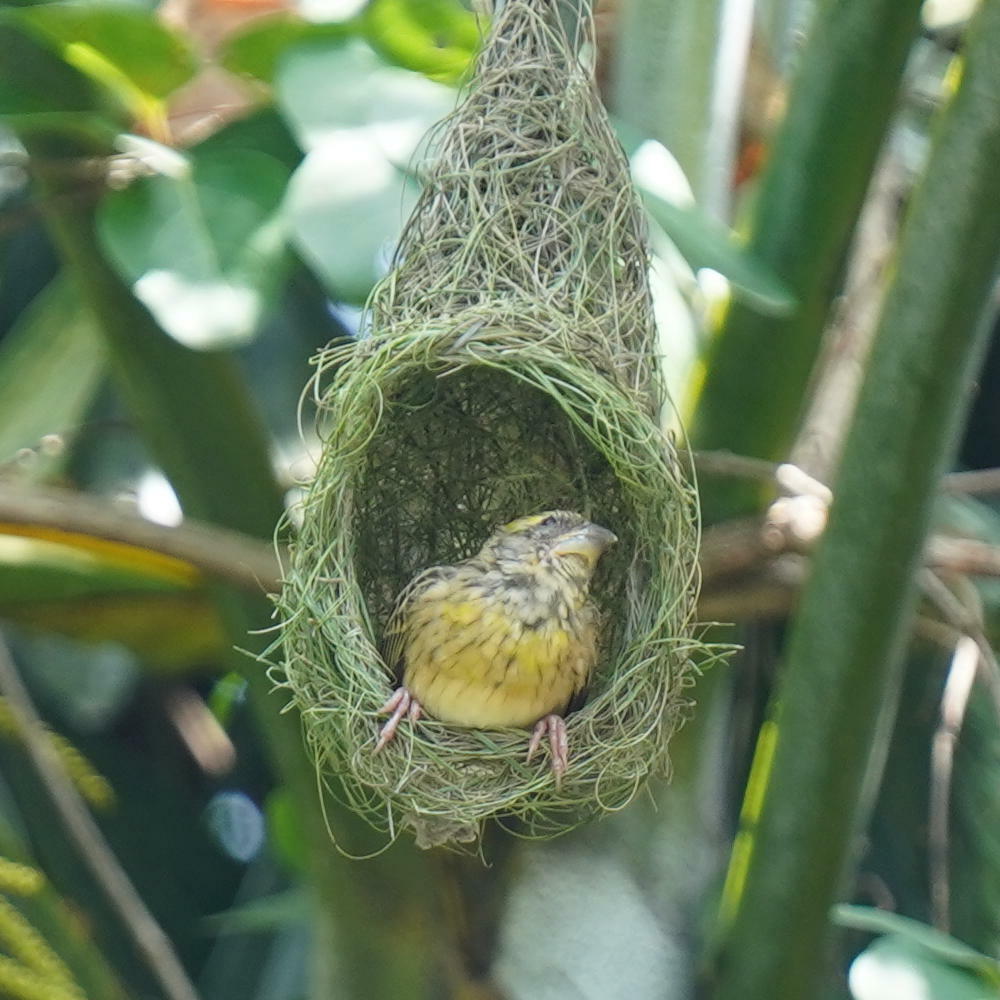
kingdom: Animalia
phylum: Chordata
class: Aves
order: Passeriformes
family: Ploceidae
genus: Ploceus
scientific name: Ploceus philippinus
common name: Baya weaver
